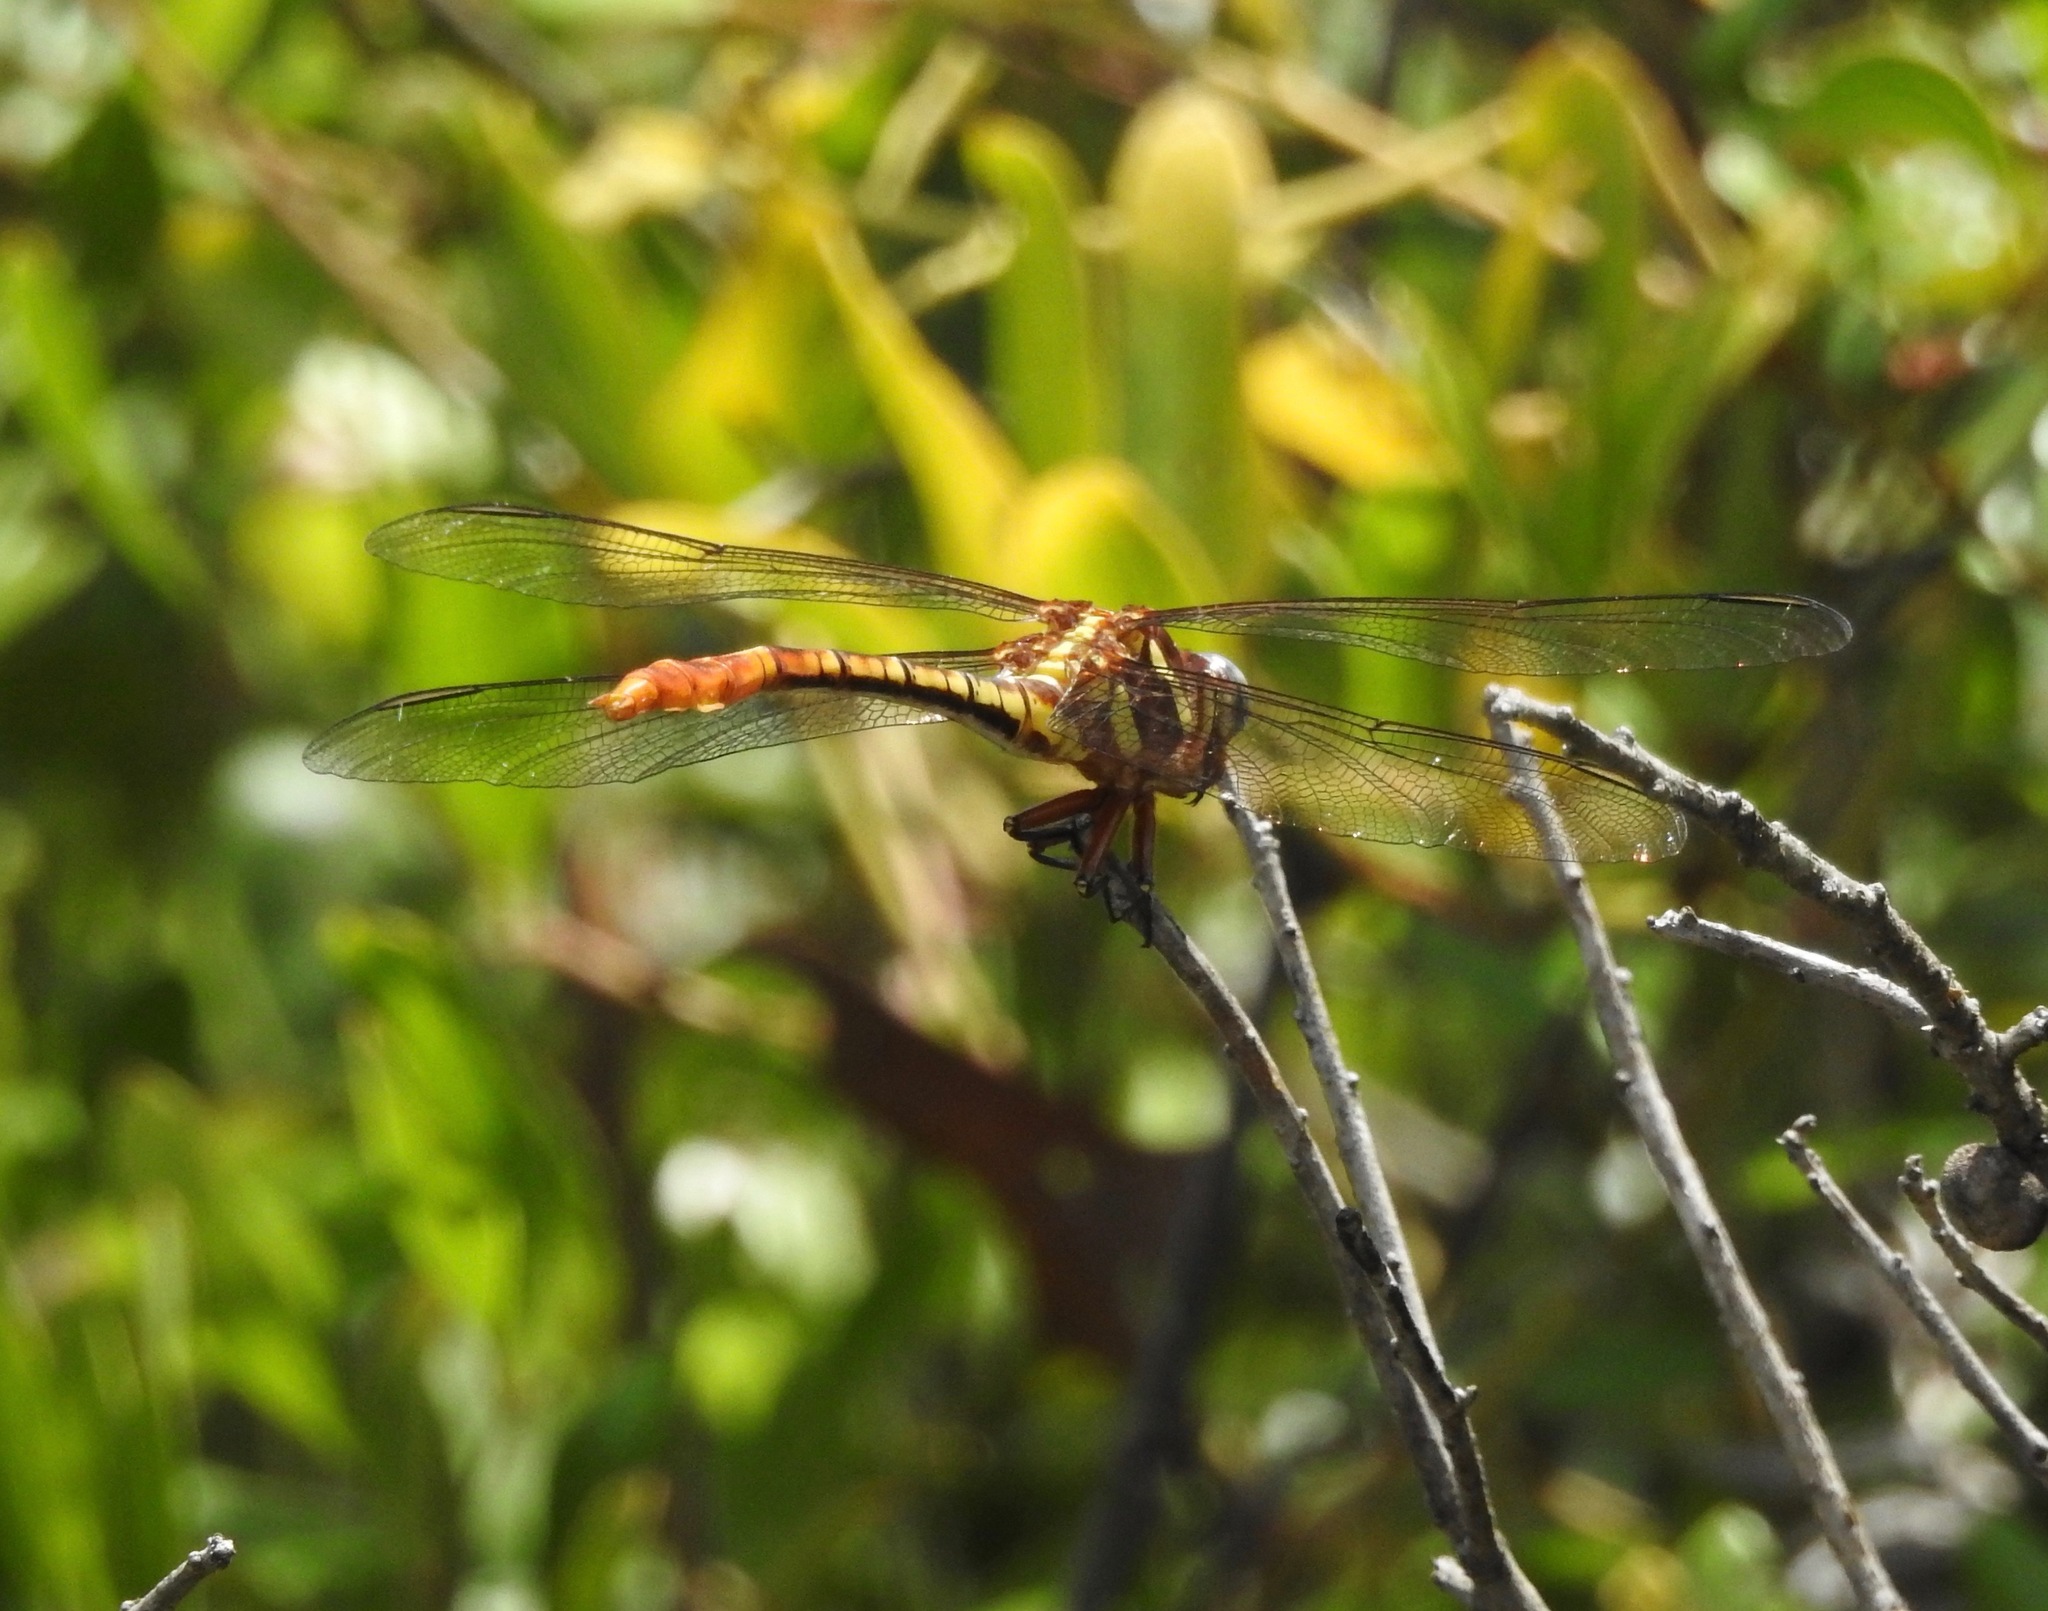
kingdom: Animalia
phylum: Arthropoda
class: Insecta
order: Odonata
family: Gomphidae
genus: Aphylla
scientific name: Aphylla williamsoni
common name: Two-striped forceptail
